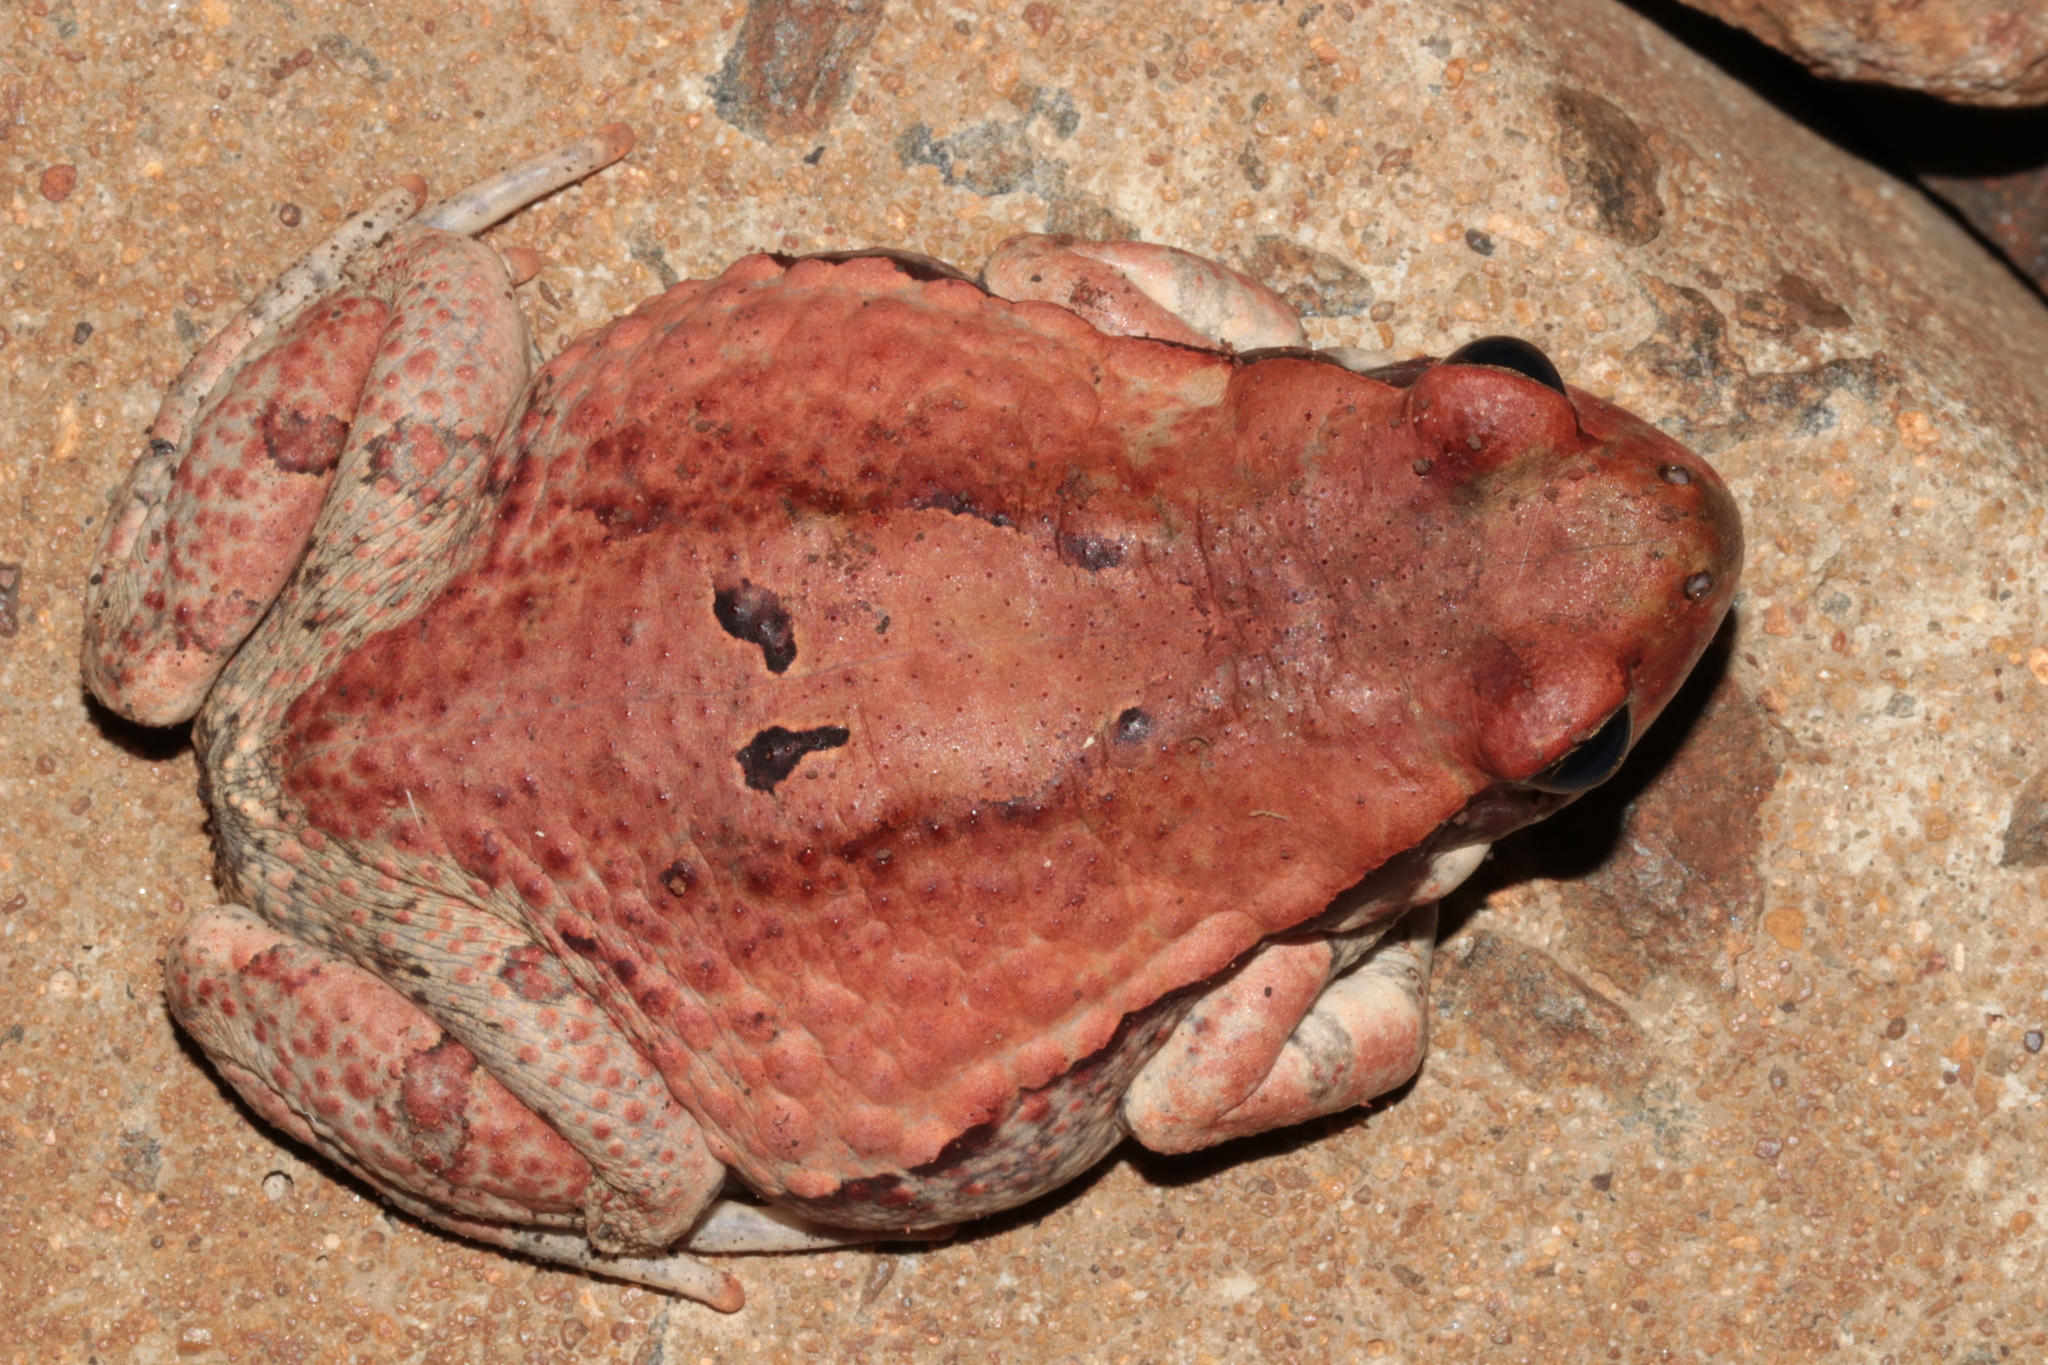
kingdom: Animalia
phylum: Chordata
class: Amphibia
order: Anura
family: Bufonidae
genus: Schismaderma
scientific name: Schismaderma carens
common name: African split-skin toad
